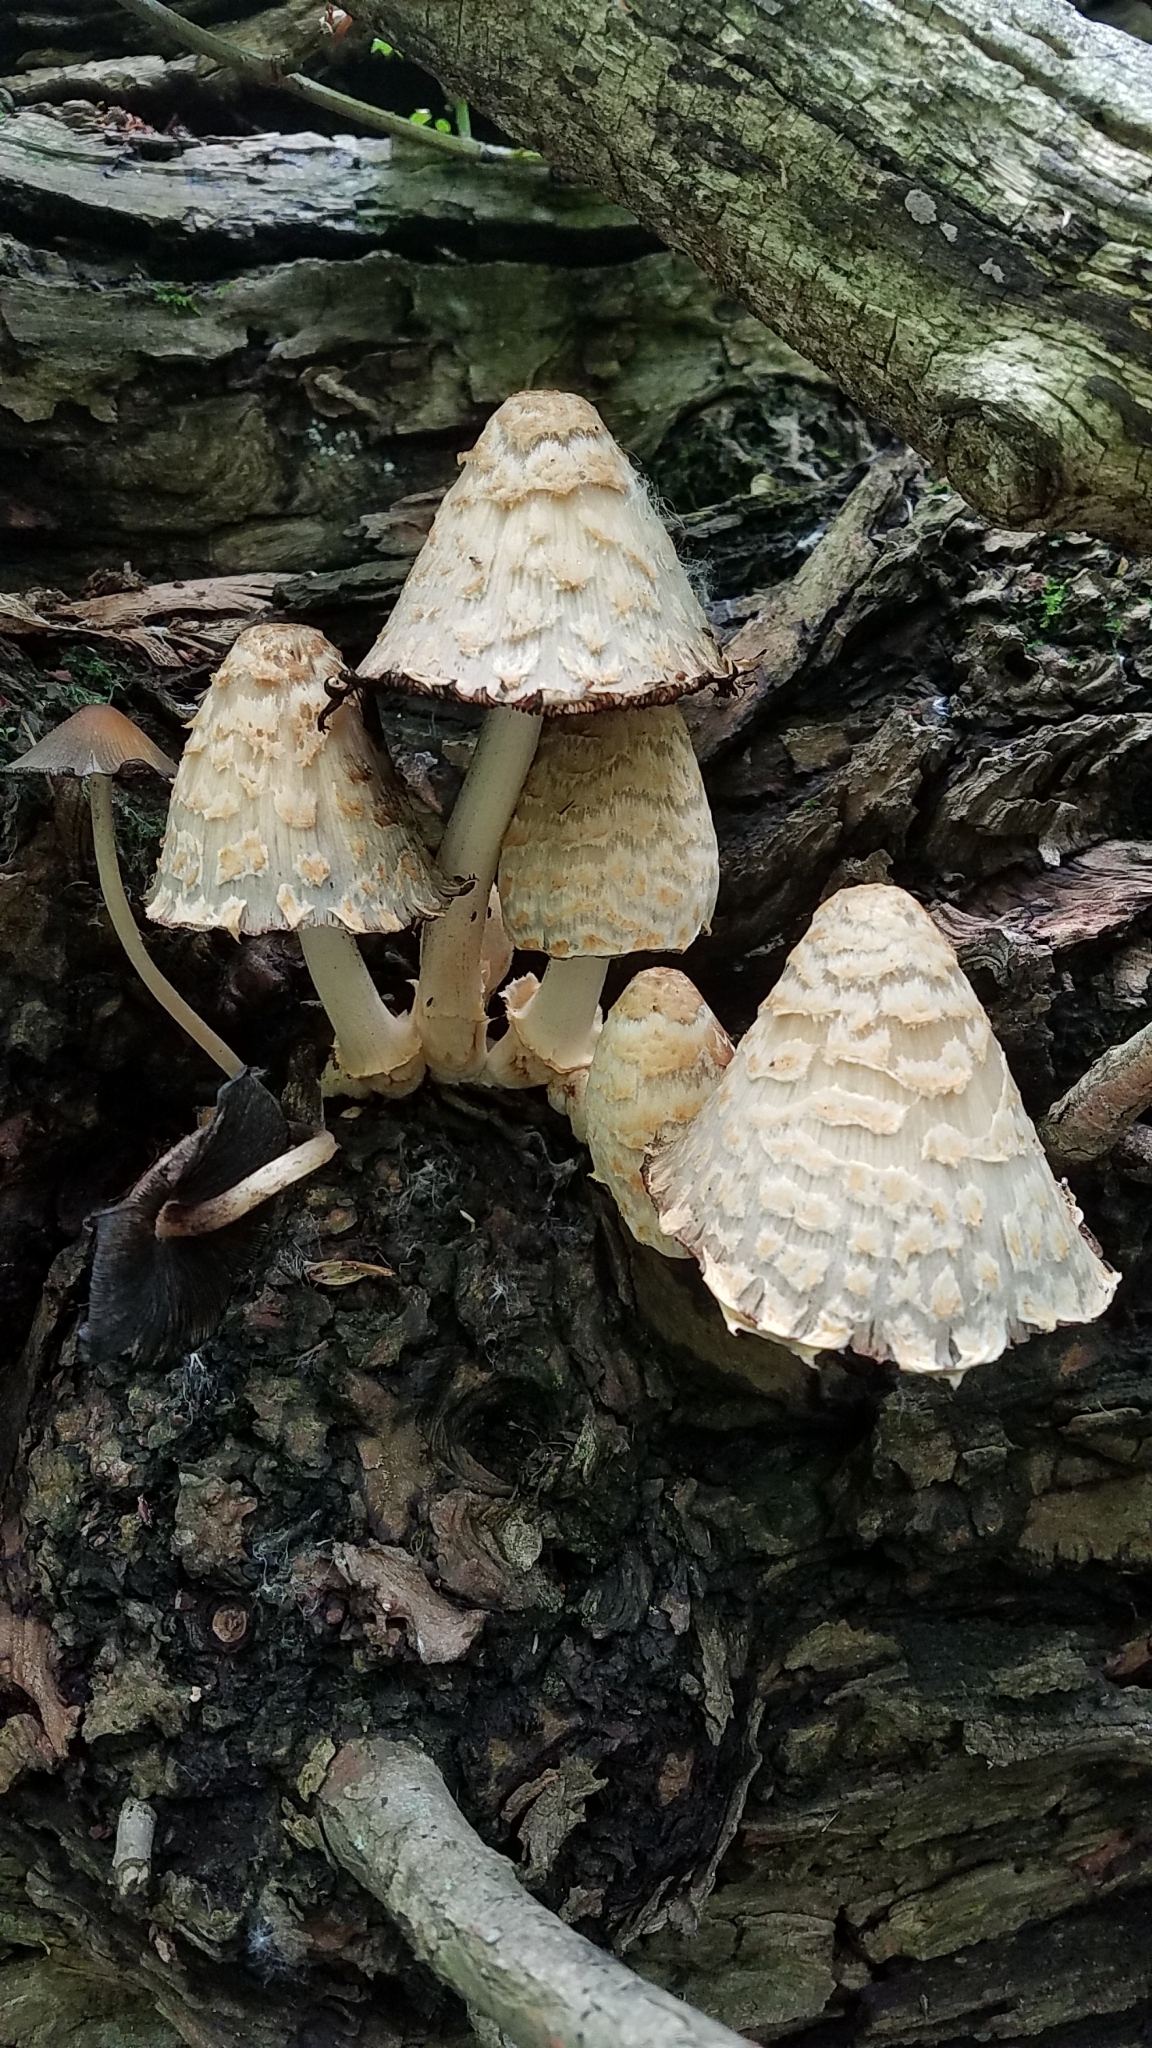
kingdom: Fungi
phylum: Basidiomycota
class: Agaricomycetes
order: Agaricales
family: Psathyrellaceae
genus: Coprinopsis
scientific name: Coprinopsis variegata
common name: Scaly ink cap
